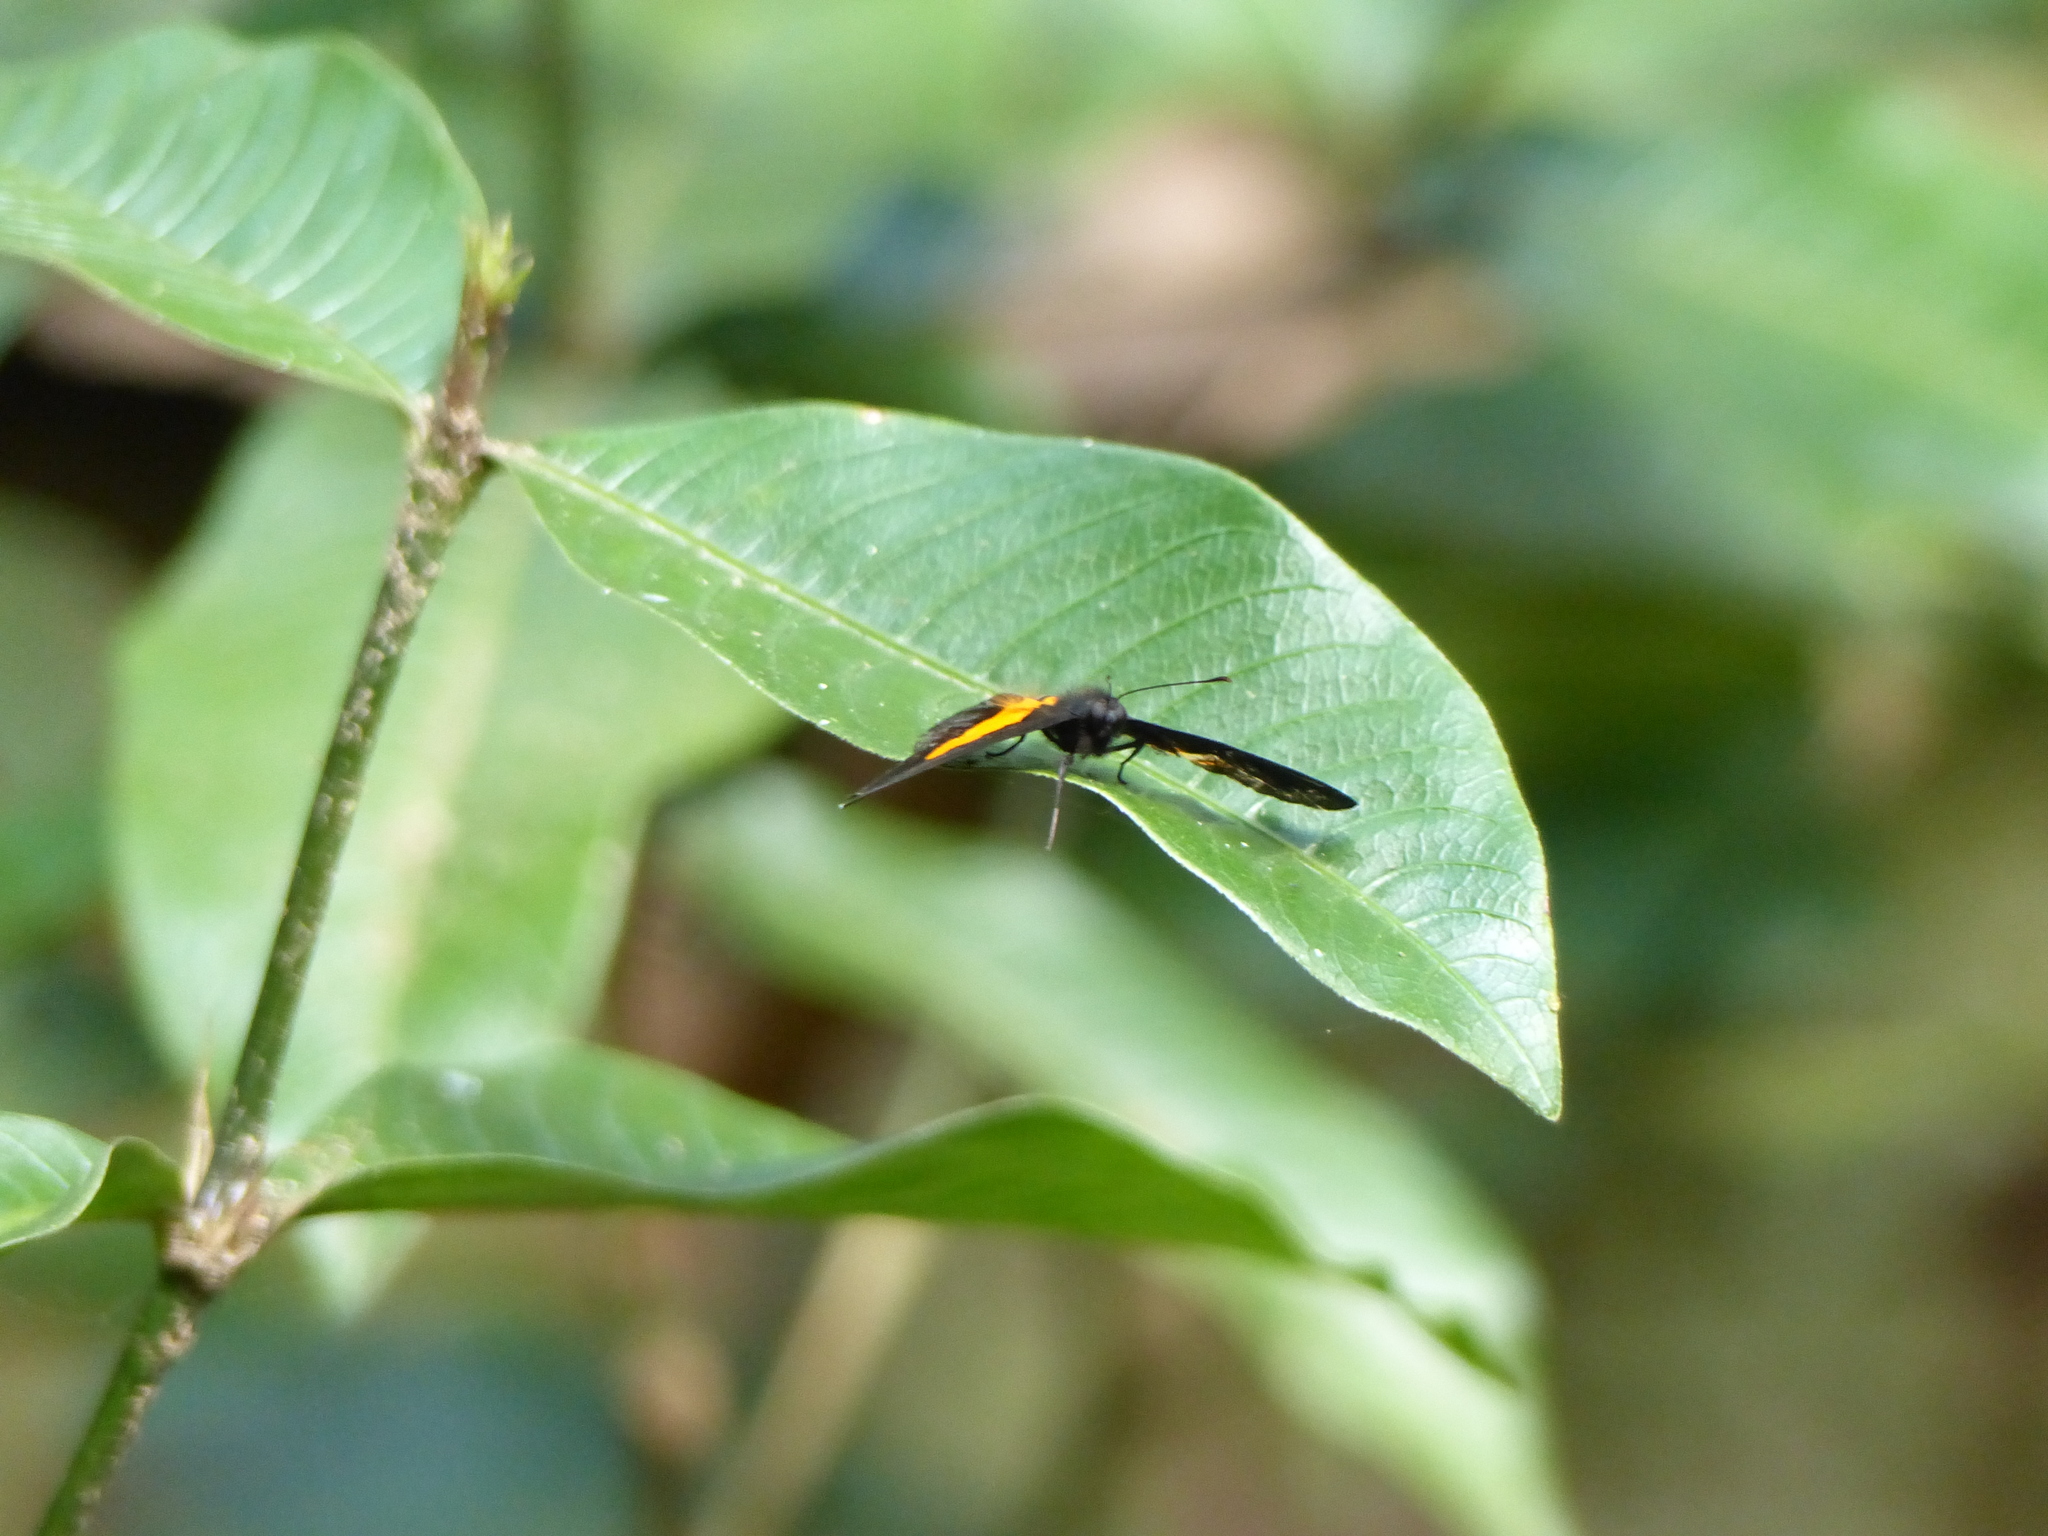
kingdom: Animalia
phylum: Arthropoda
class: Insecta
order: Lepidoptera
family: Riodinidae
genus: Pirascca
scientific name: Pirascca sagaris
